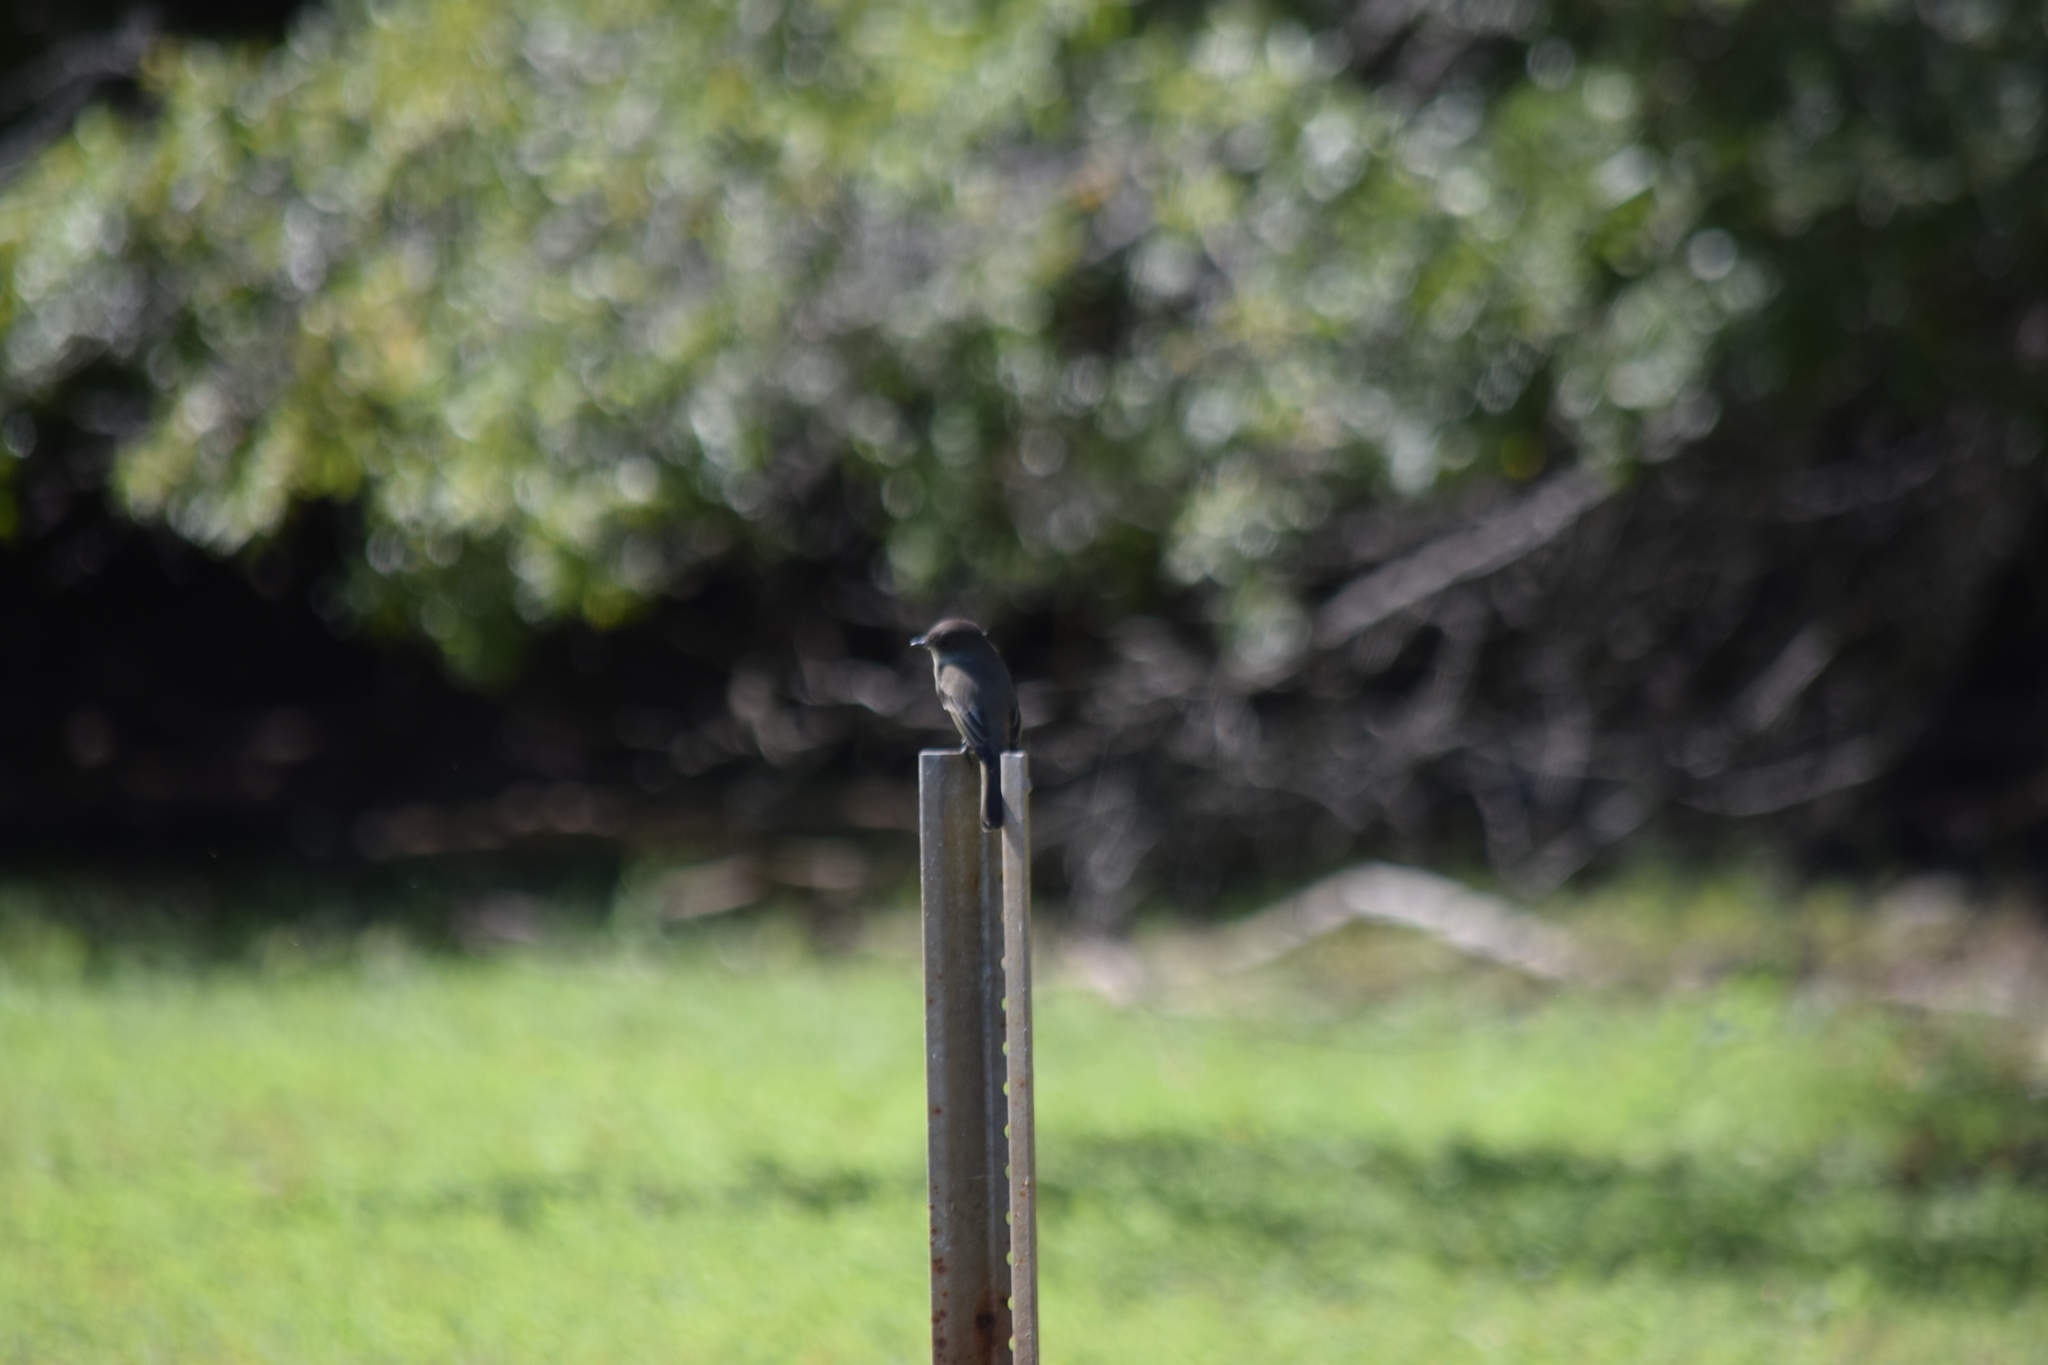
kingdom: Animalia
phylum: Chordata
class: Aves
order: Passeriformes
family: Tyrannidae
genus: Sayornis
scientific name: Sayornis phoebe
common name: Eastern phoebe
